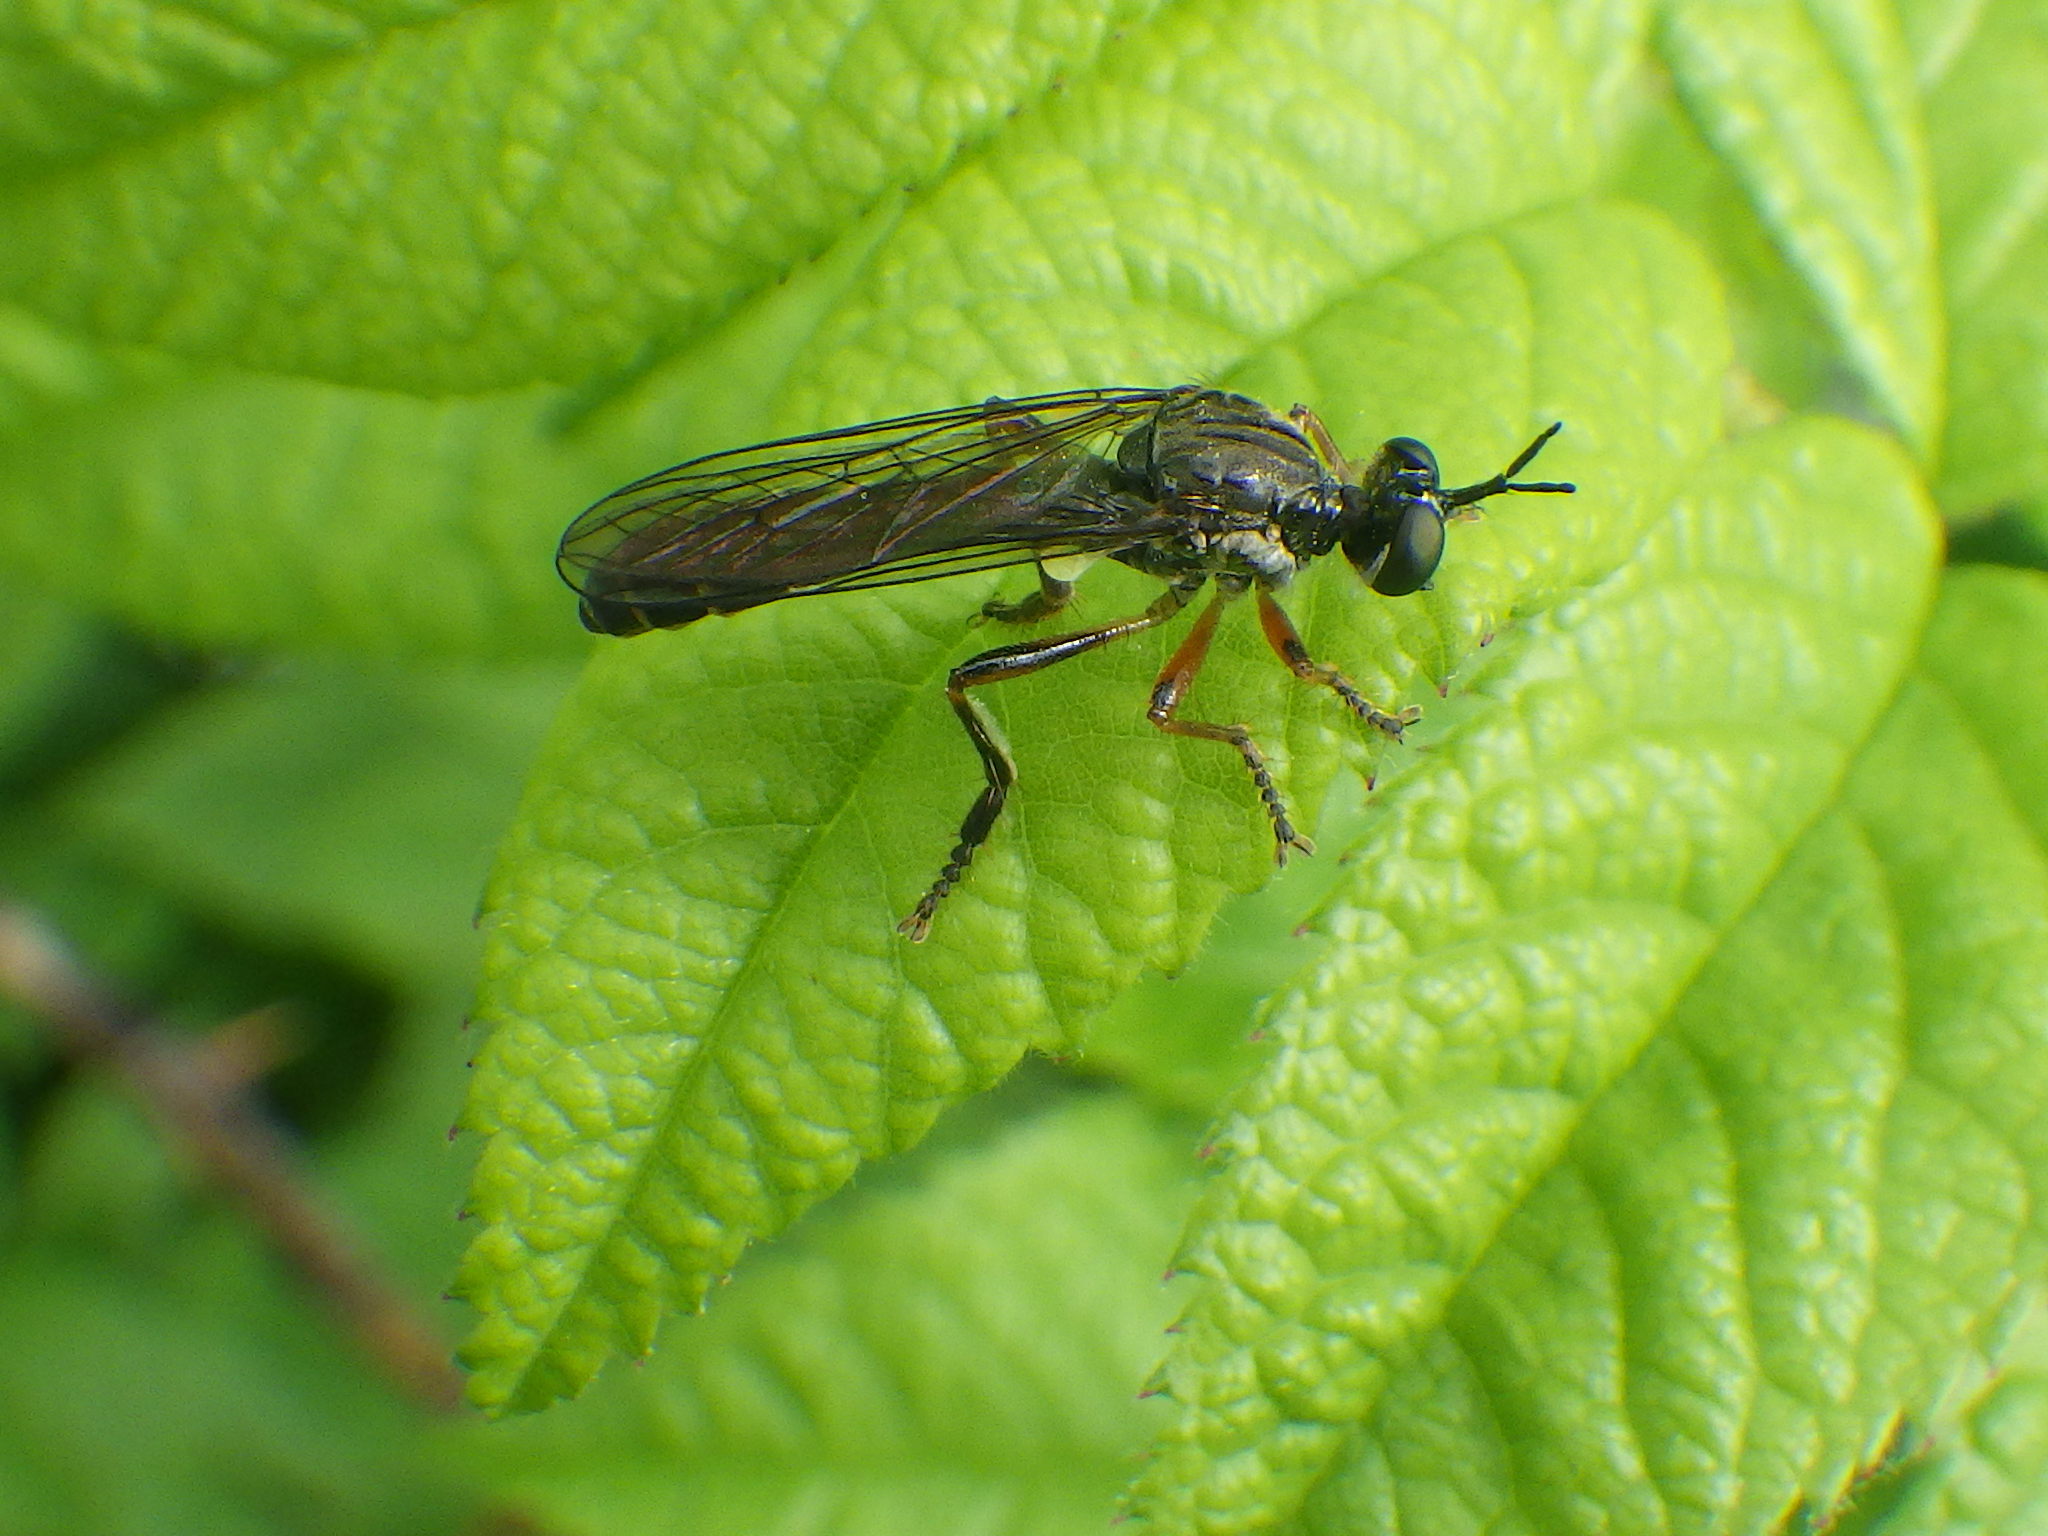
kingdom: Animalia
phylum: Arthropoda
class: Insecta
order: Diptera
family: Asilidae
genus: Dioctria
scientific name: Dioctria hyalipennis
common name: Stripe-legged robberfly
